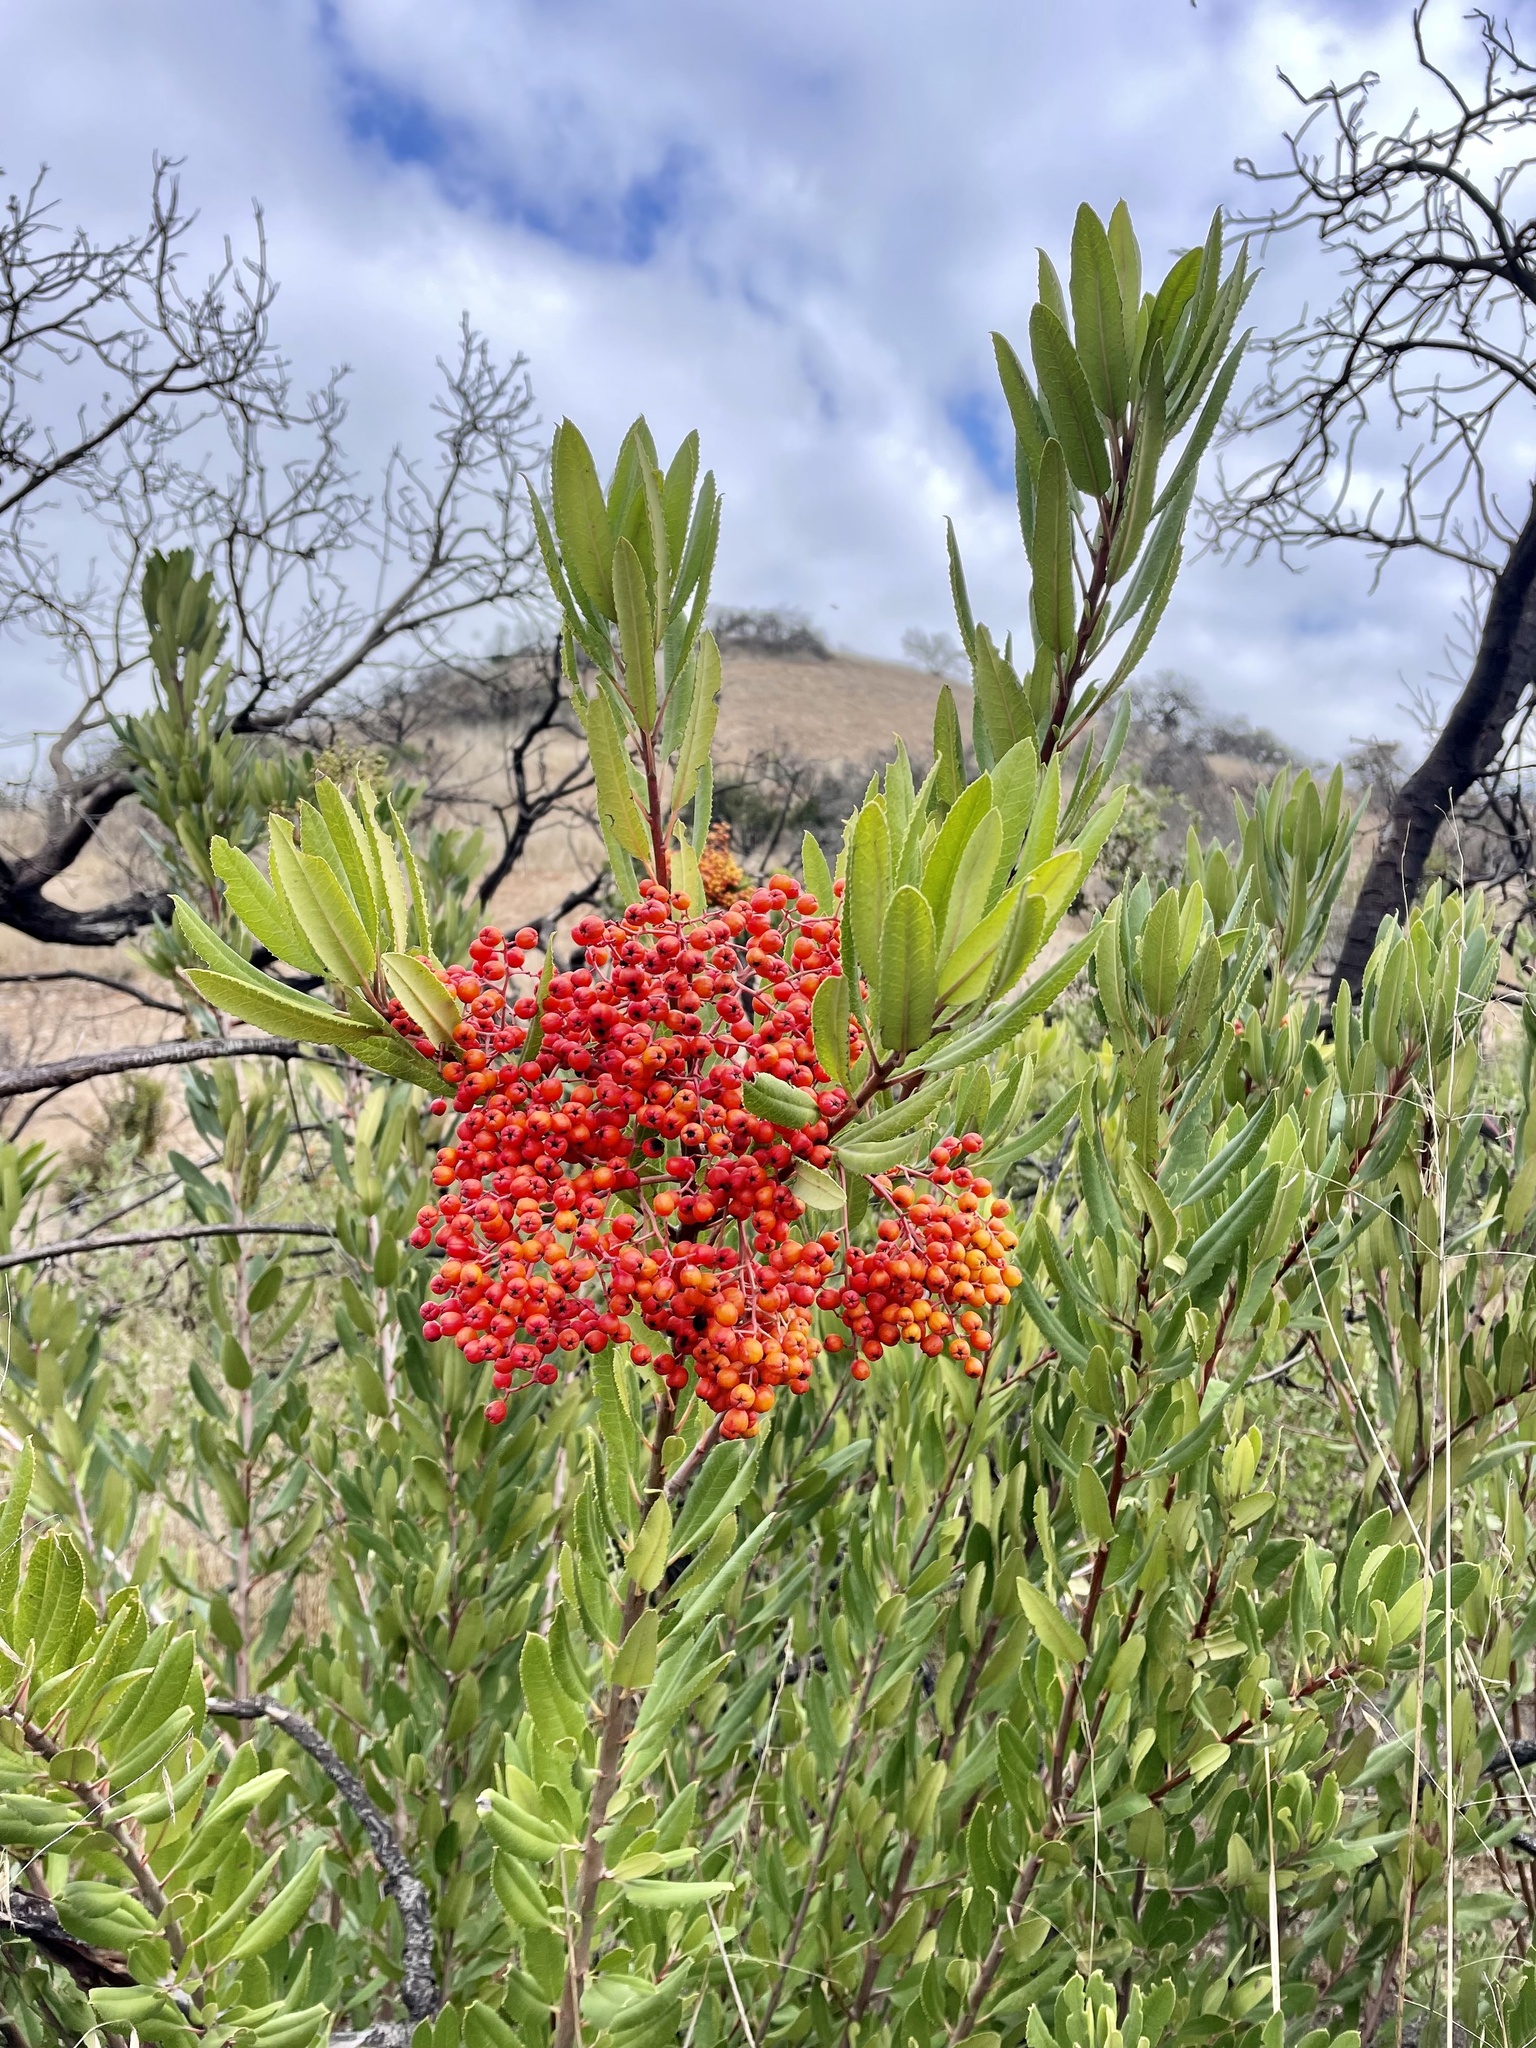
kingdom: Plantae
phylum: Tracheophyta
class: Magnoliopsida
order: Rosales
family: Rosaceae
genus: Heteromeles
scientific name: Heteromeles arbutifolia
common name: California-holly
